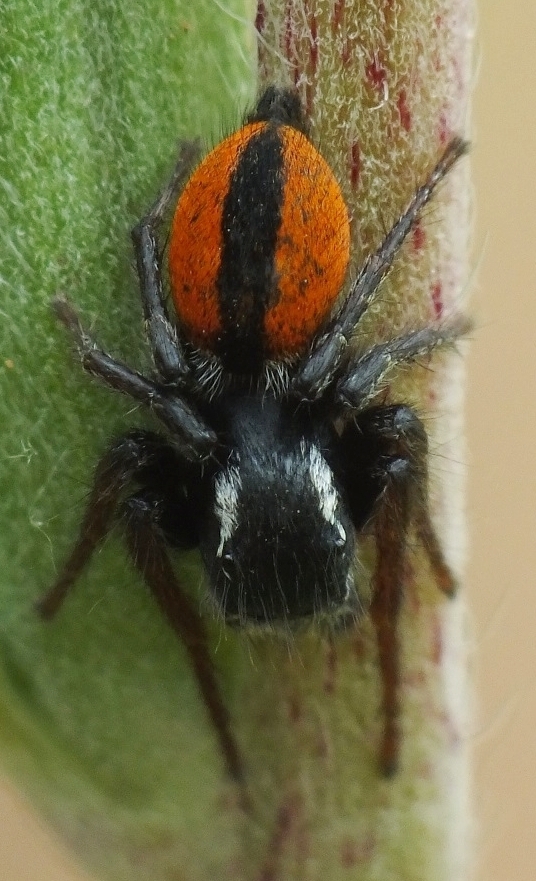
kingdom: Animalia
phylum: Arthropoda
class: Arachnida
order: Araneae
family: Salticidae
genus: Philaeus
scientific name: Philaeus chrysops
